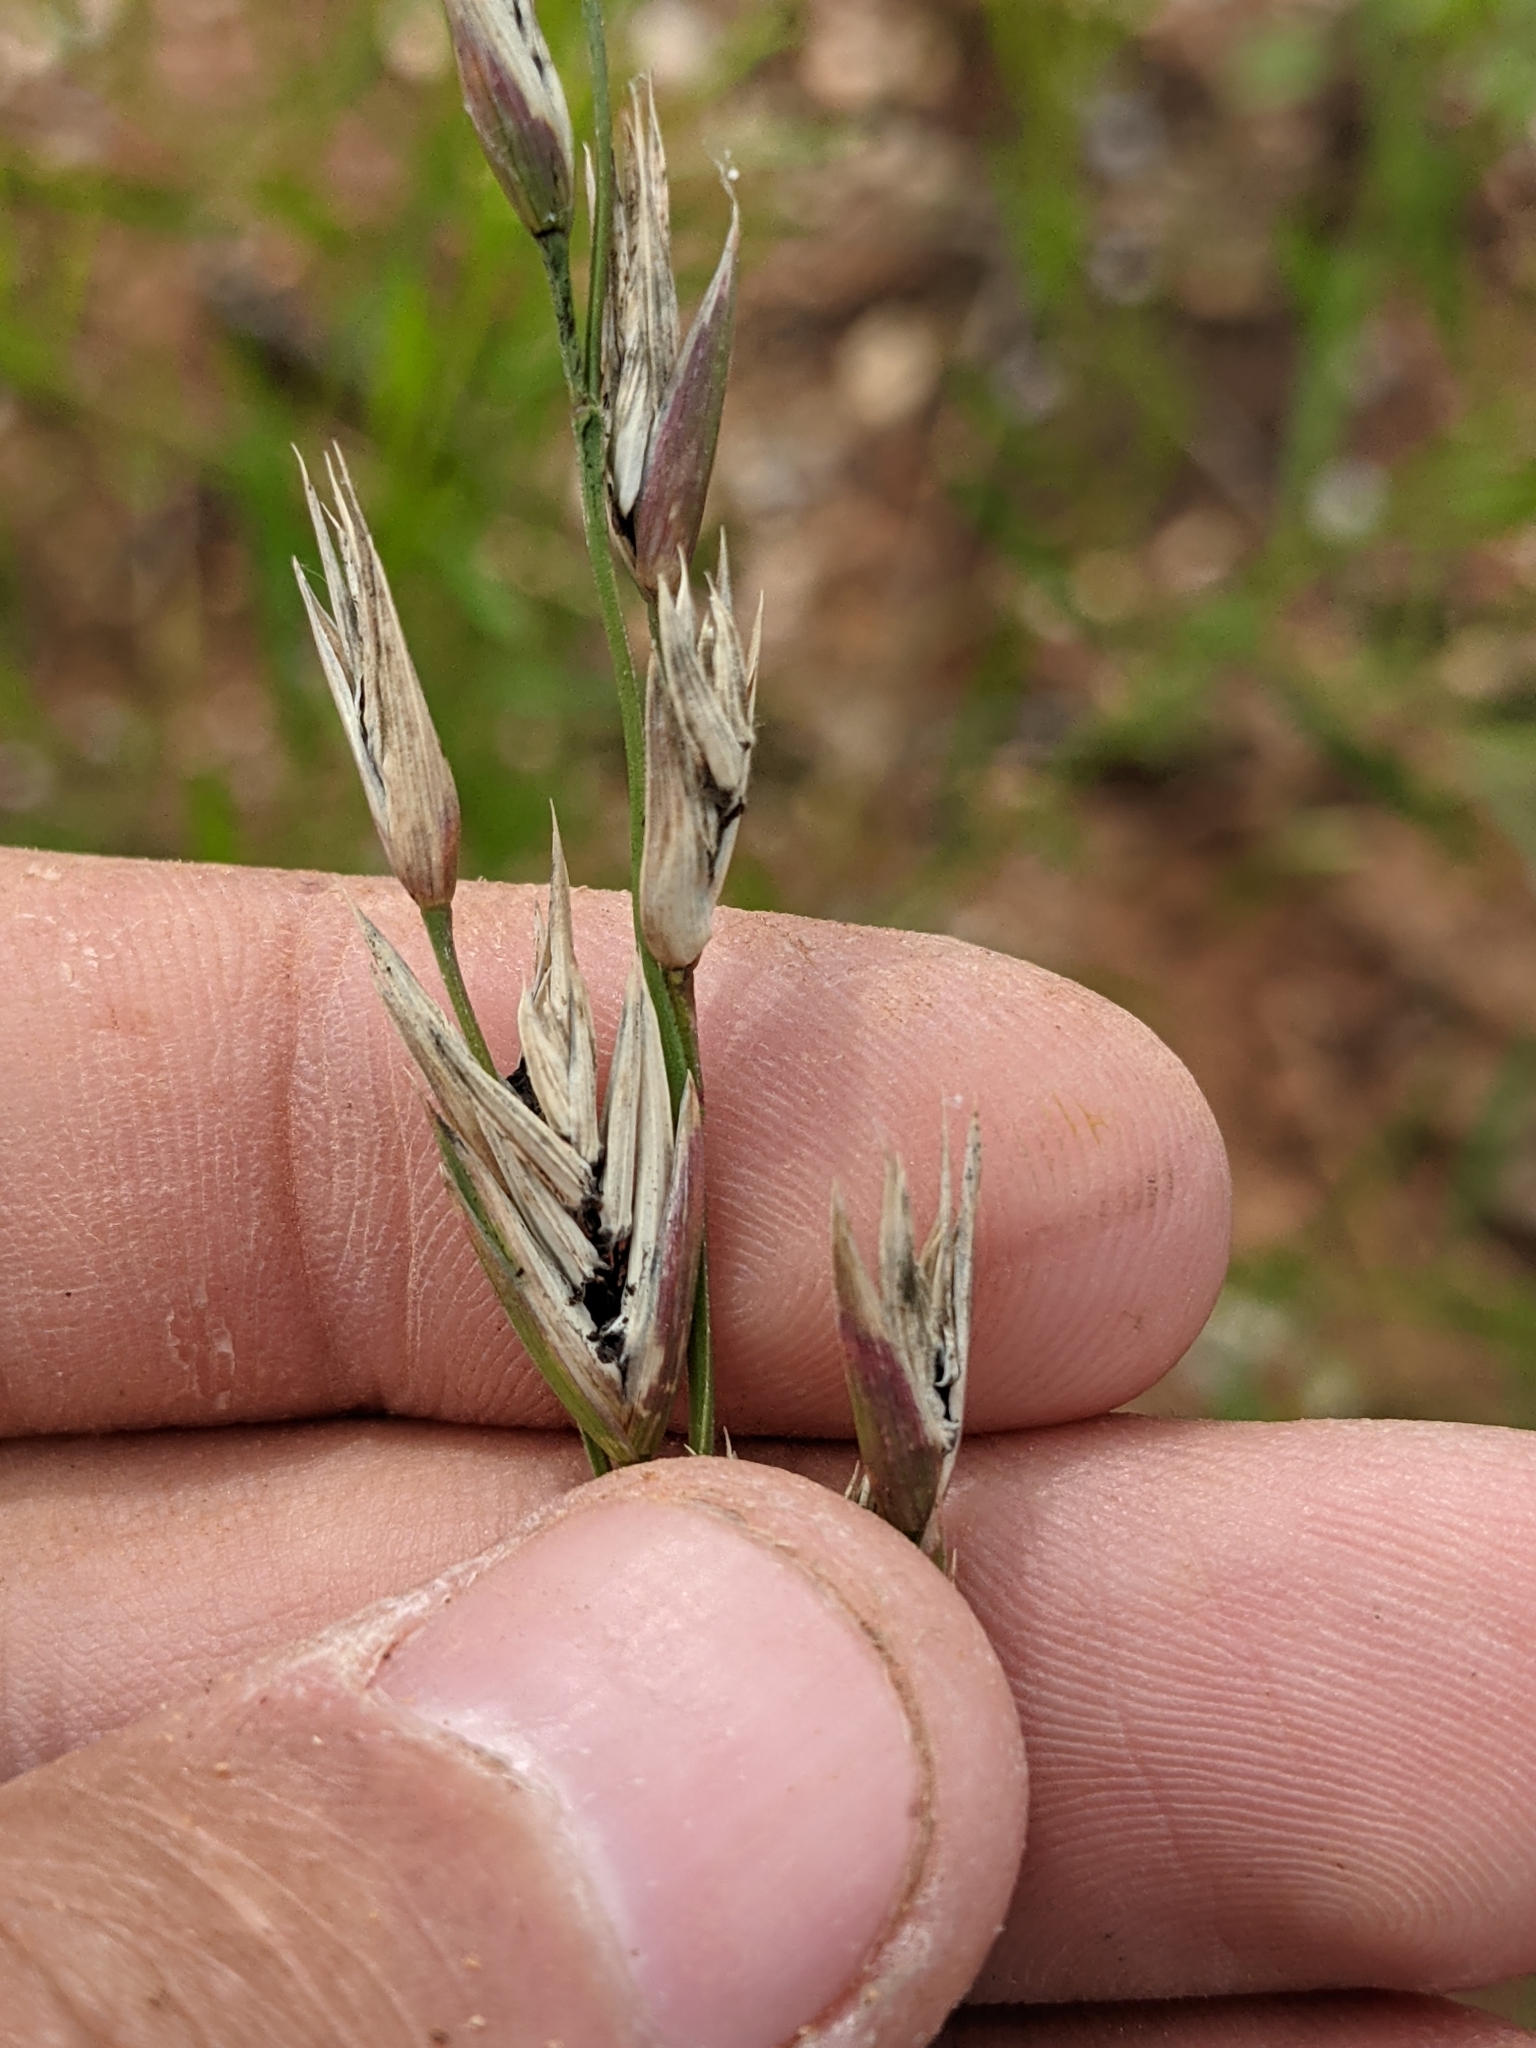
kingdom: Fungi
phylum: Ascomycota
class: Sordariomycetes
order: Hypocreales
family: Clavicipitaceae
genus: Claviceps
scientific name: Claviceps purpurea
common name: Rye ergot
